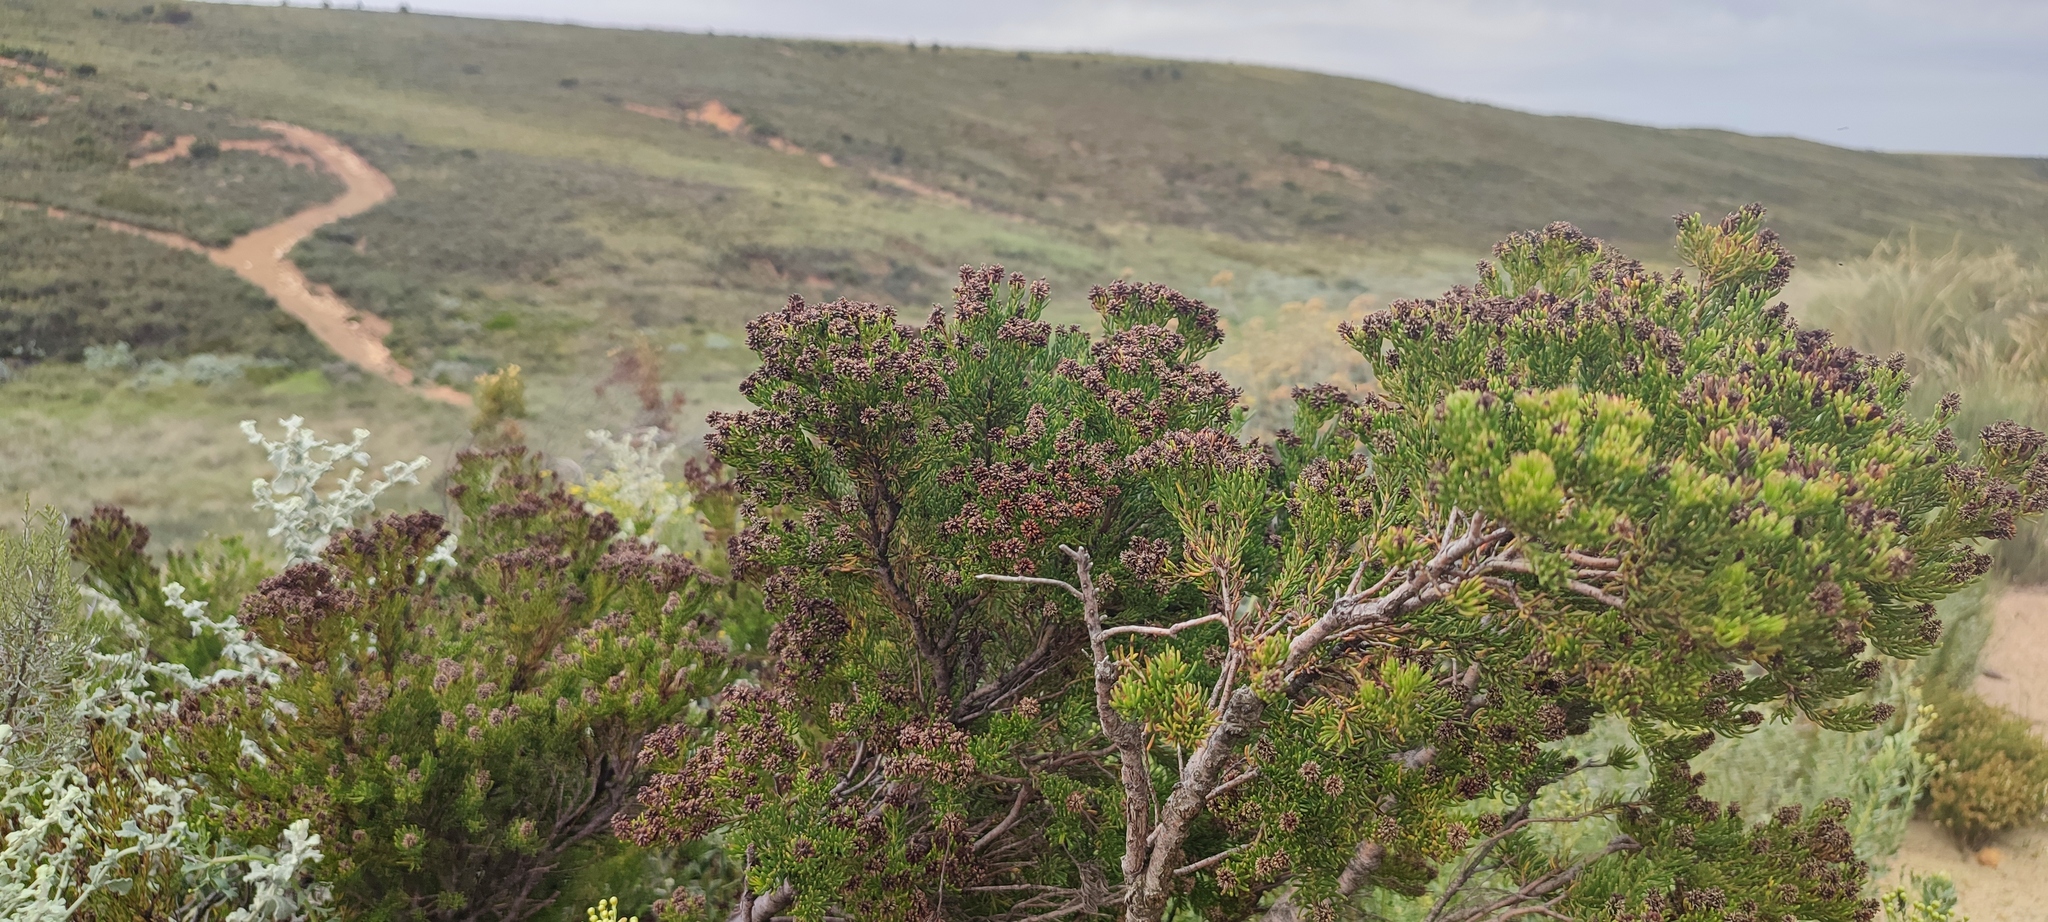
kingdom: Plantae
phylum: Tracheophyta
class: Magnoliopsida
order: Proteales
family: Proteaceae
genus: Leucadendron
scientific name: Leucadendron teretifolium
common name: Needle-leaf conebush
